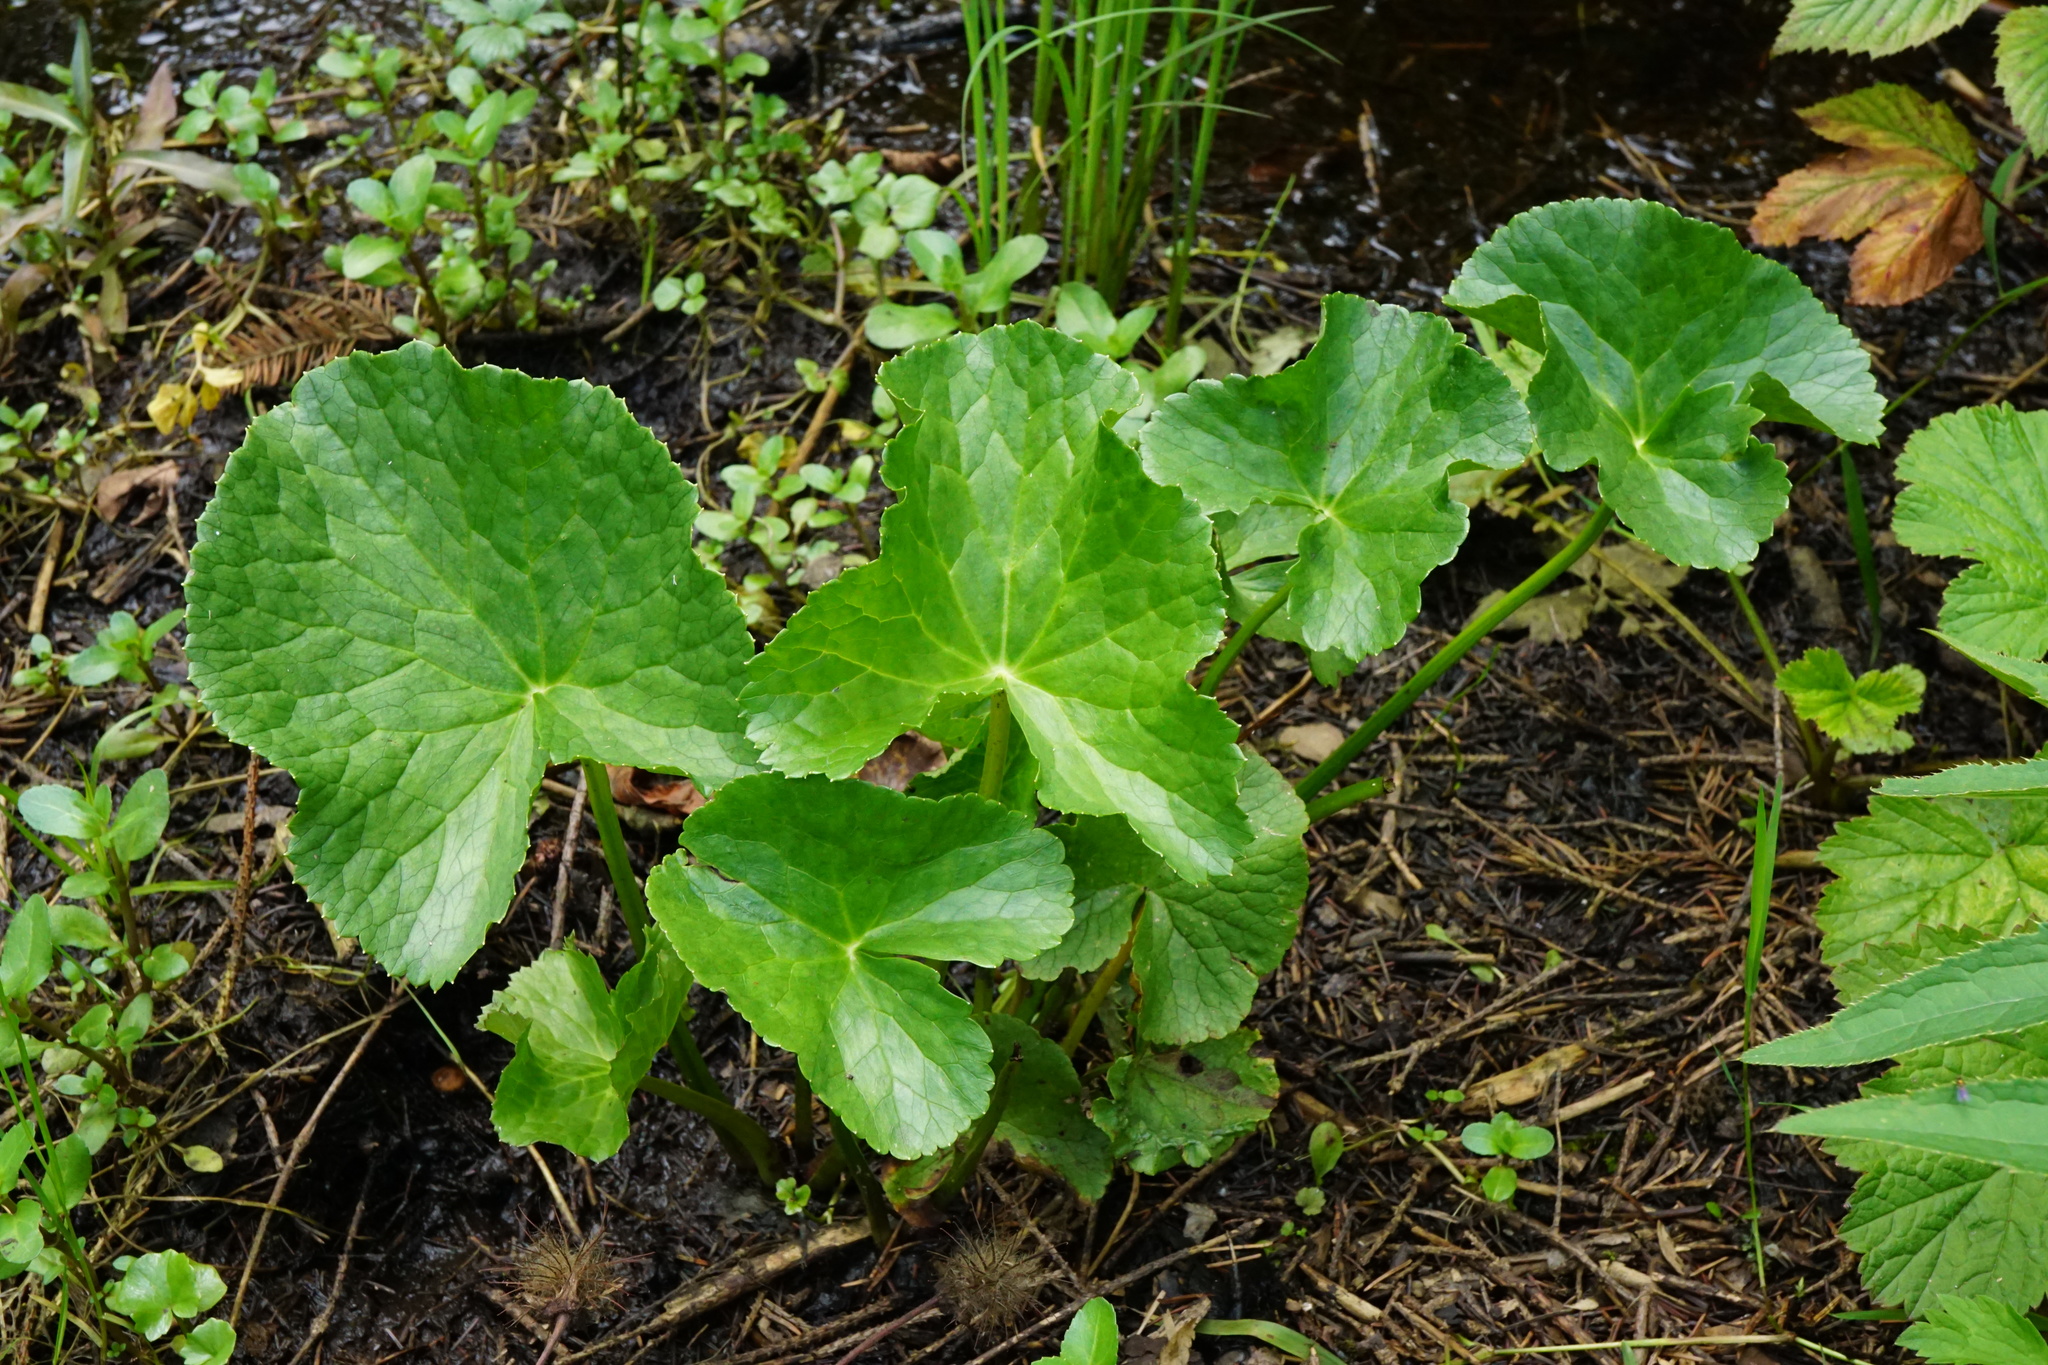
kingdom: Plantae
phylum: Tracheophyta
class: Magnoliopsida
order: Ranunculales
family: Ranunculaceae
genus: Caltha
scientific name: Caltha palustris
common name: Marsh marigold
